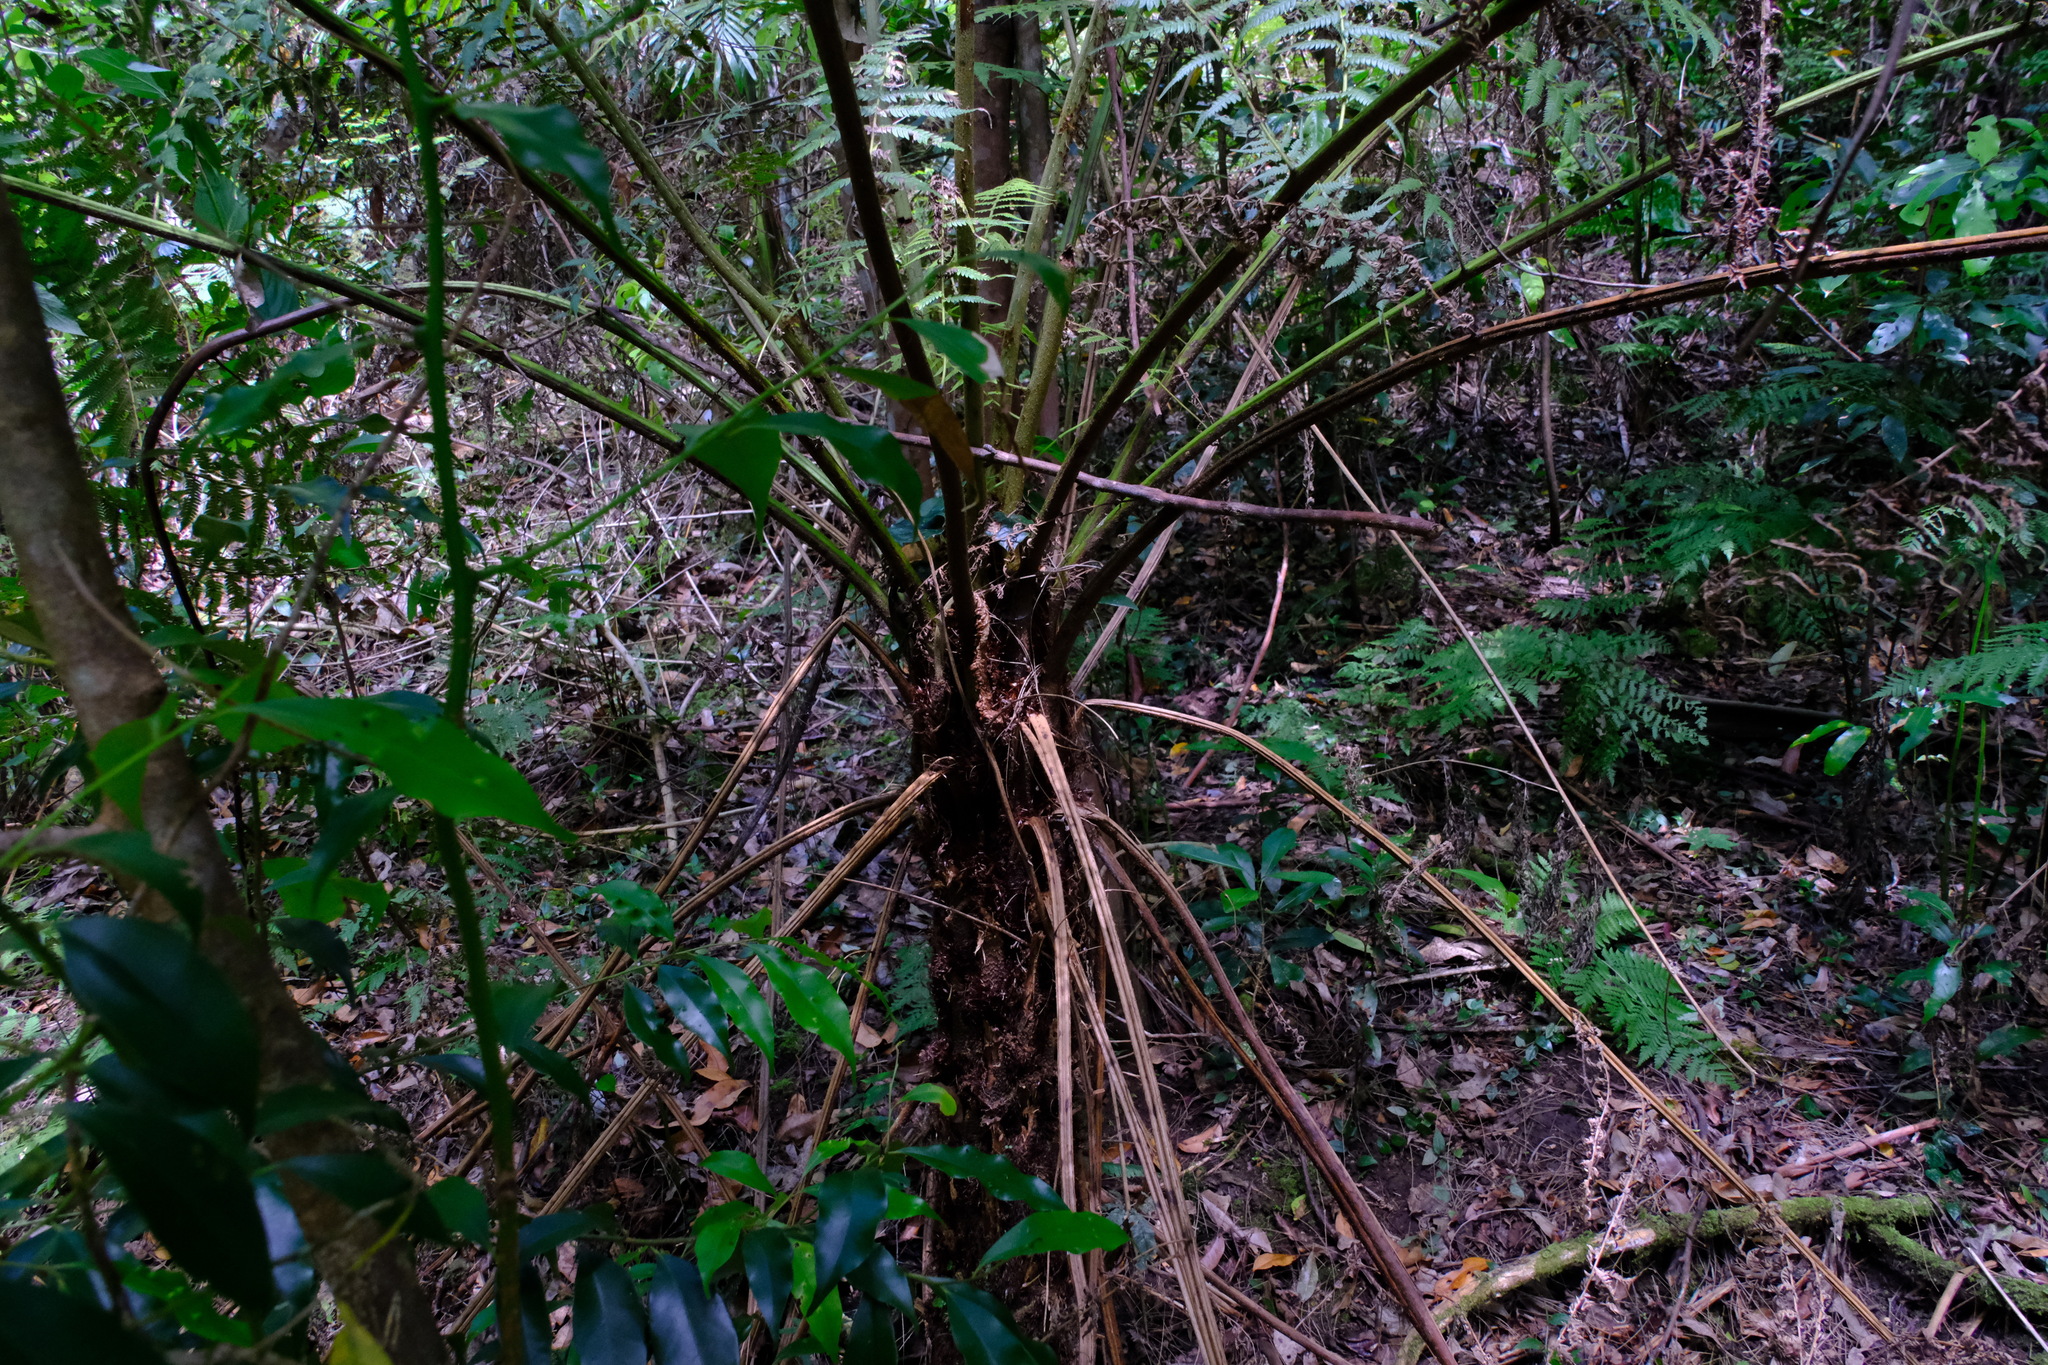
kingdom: Plantae
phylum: Tracheophyta
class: Polypodiopsida
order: Cyatheales
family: Cyatheaceae
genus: Alsophila
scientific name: Alsophila australis
